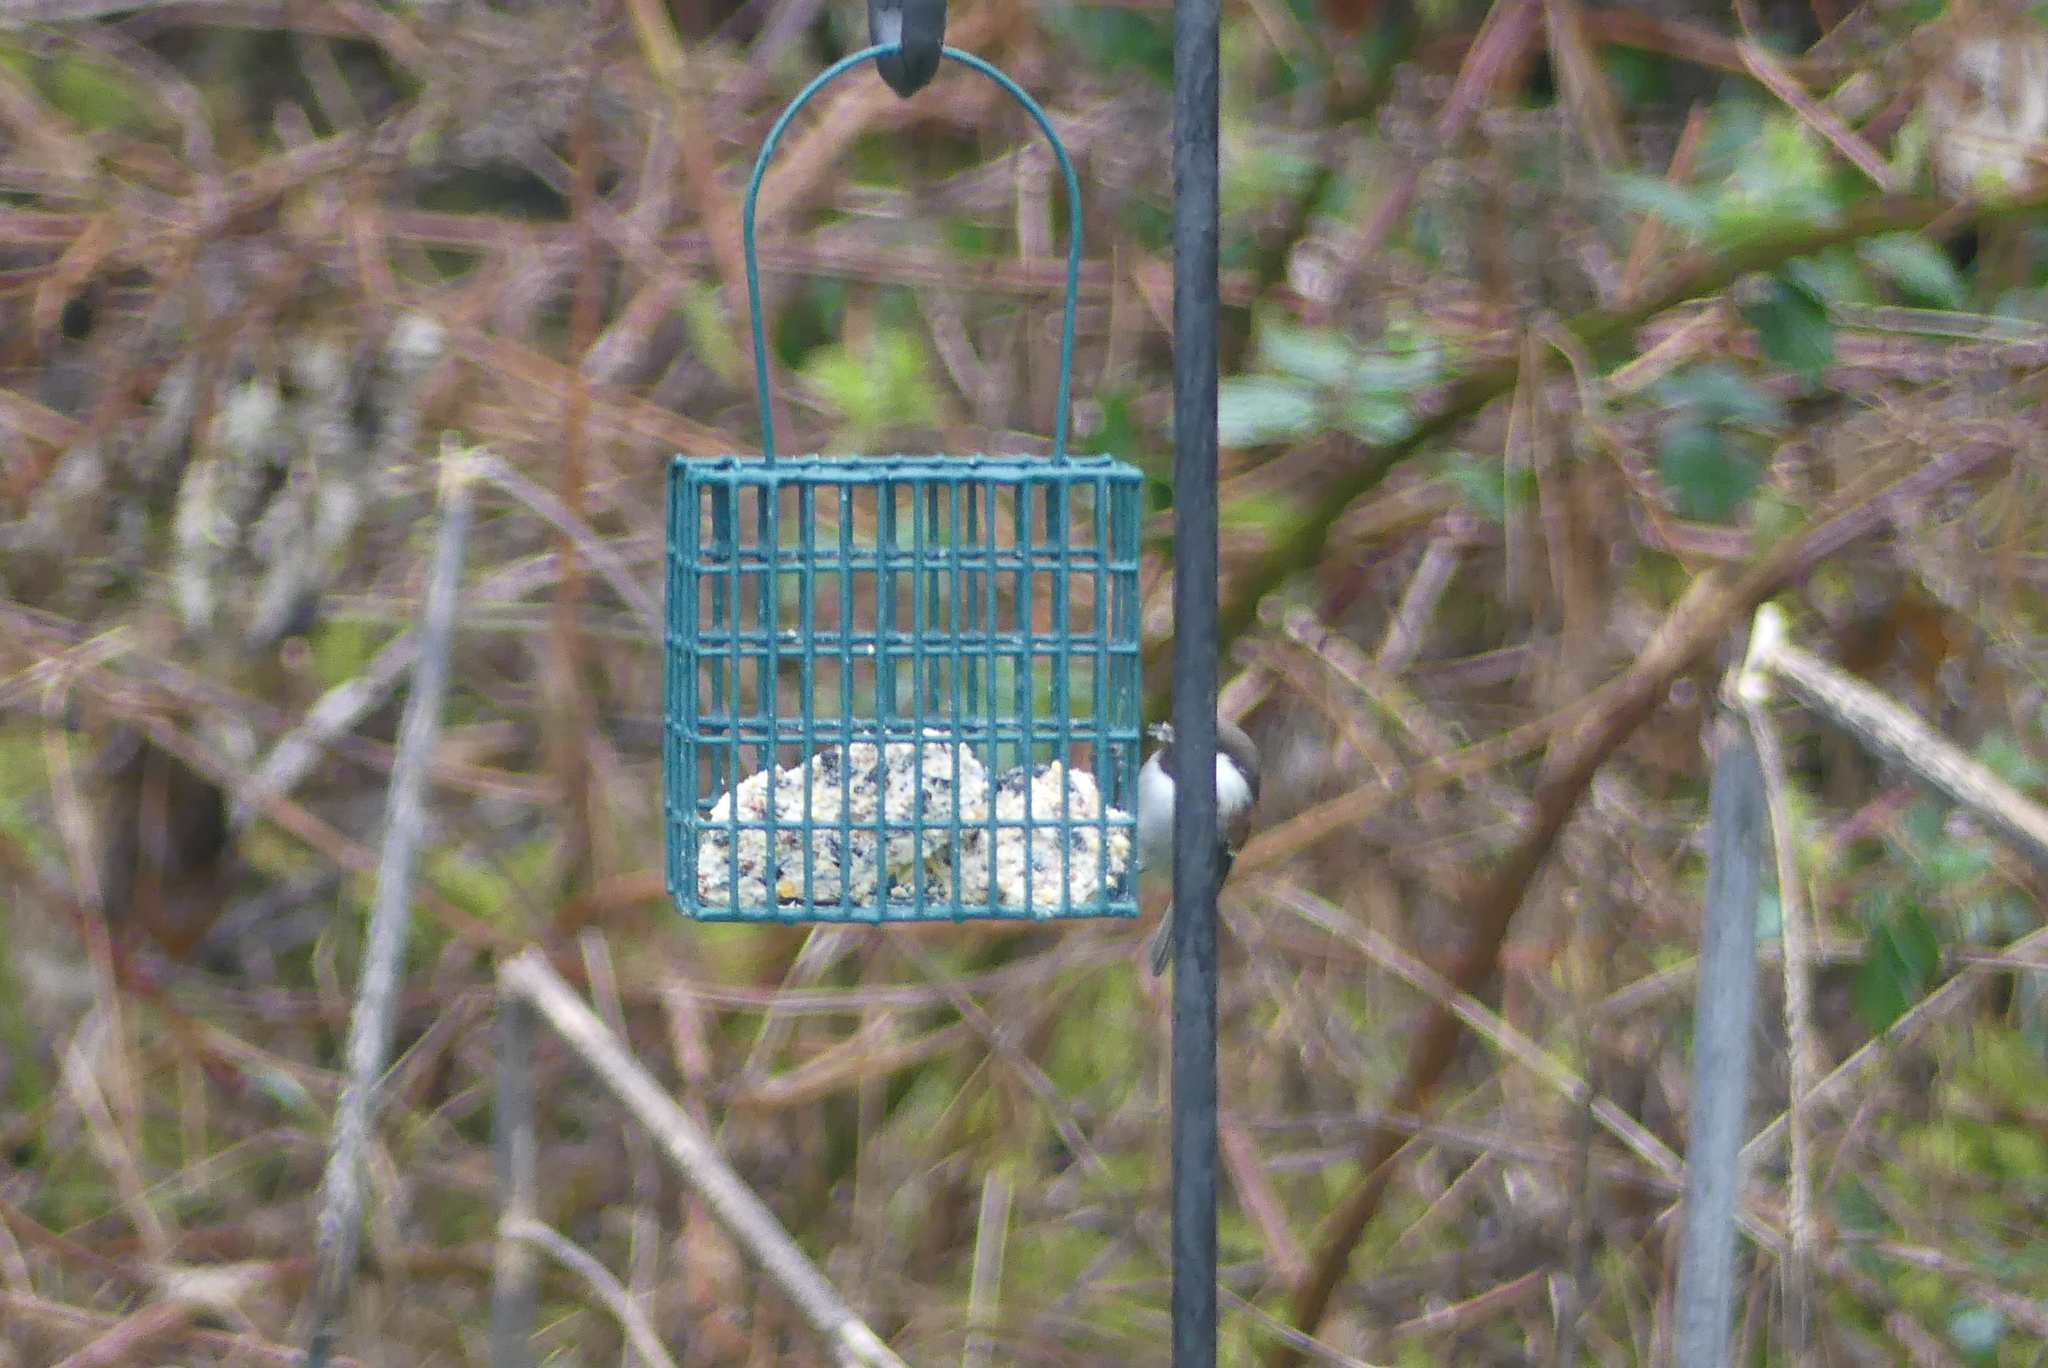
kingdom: Animalia
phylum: Chordata
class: Aves
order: Passeriformes
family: Paridae
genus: Poecile
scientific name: Poecile rufescens
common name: Chestnut-backed chickadee
